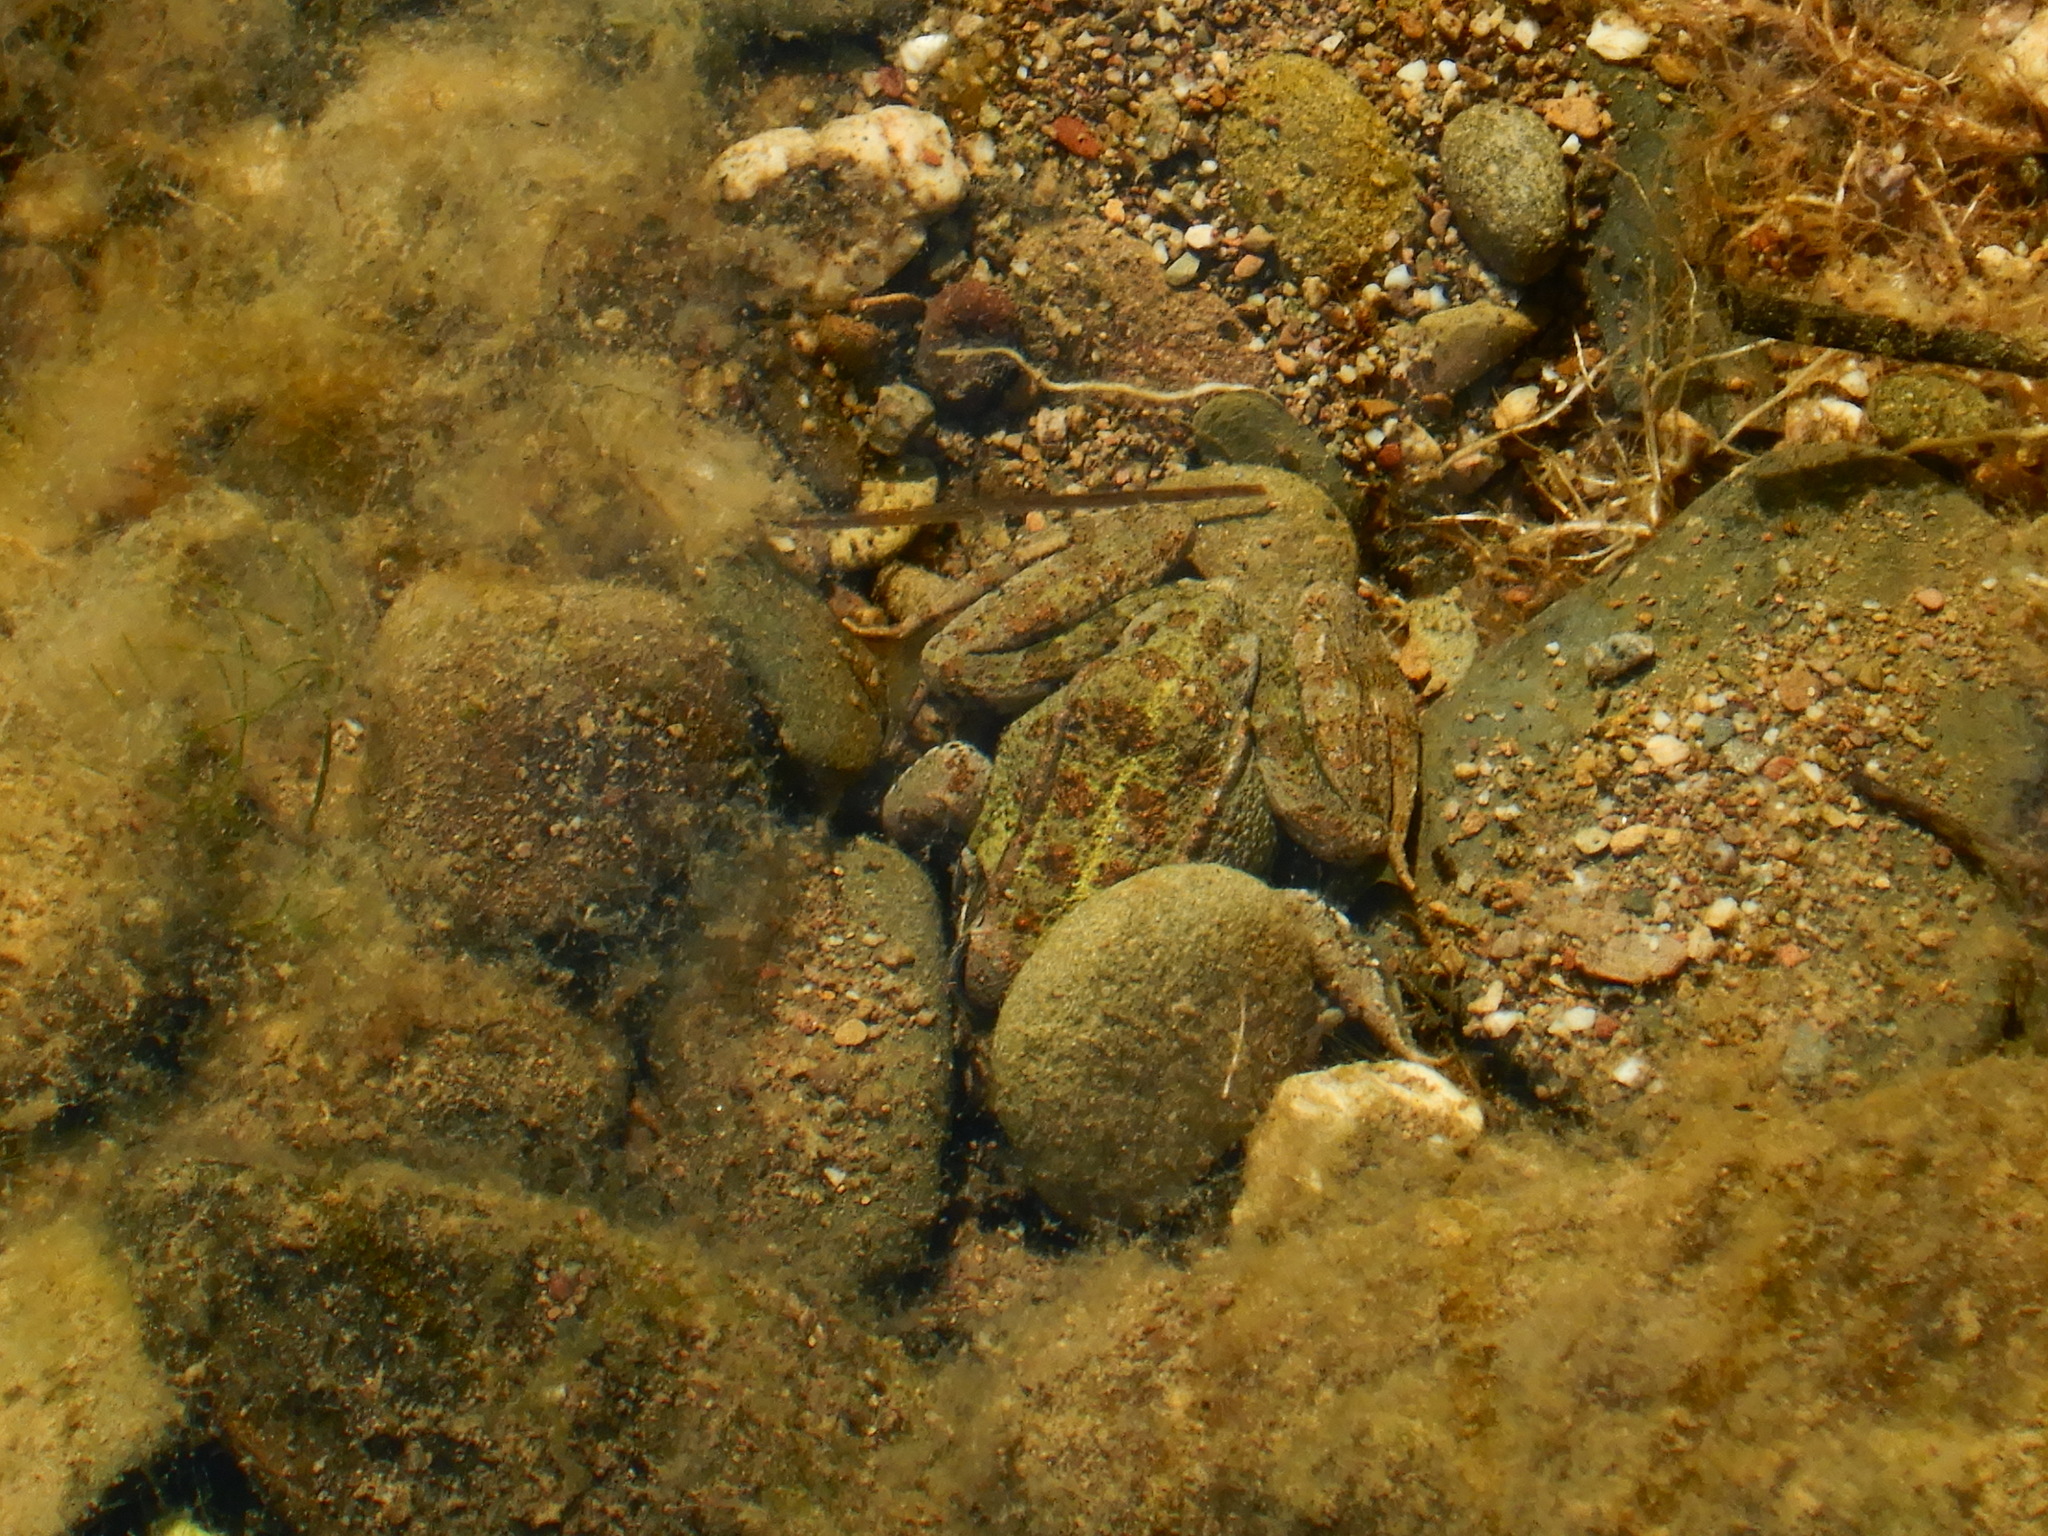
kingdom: Animalia
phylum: Chordata
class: Amphibia
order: Anura
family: Ranidae
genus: Pelophylax
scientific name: Pelophylax perezi
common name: Perez's frog
